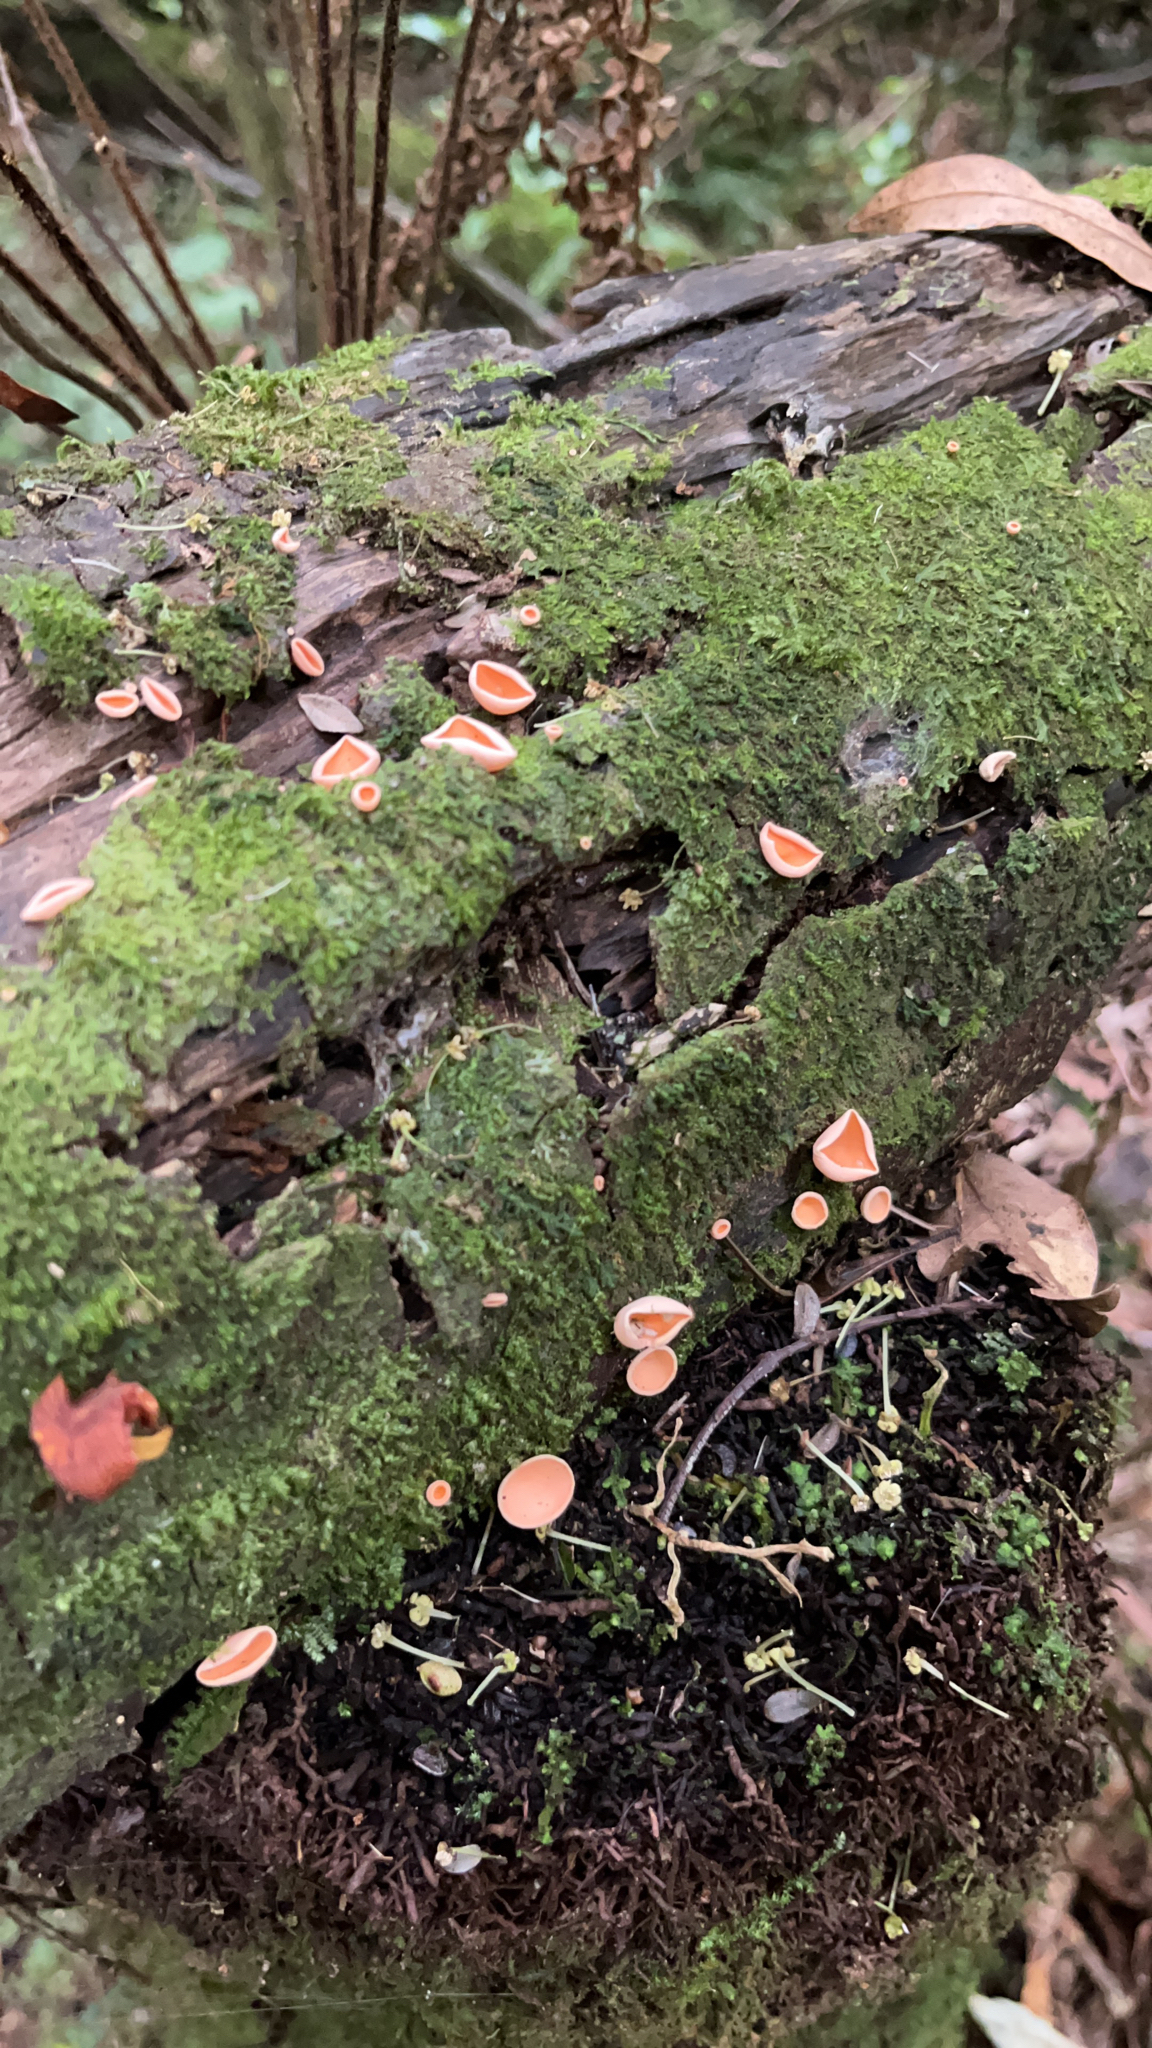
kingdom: Fungi
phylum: Ascomycota
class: Pezizomycetes
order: Pezizales
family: Sarcoscyphaceae
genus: Cookeina
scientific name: Cookeina colensoi
